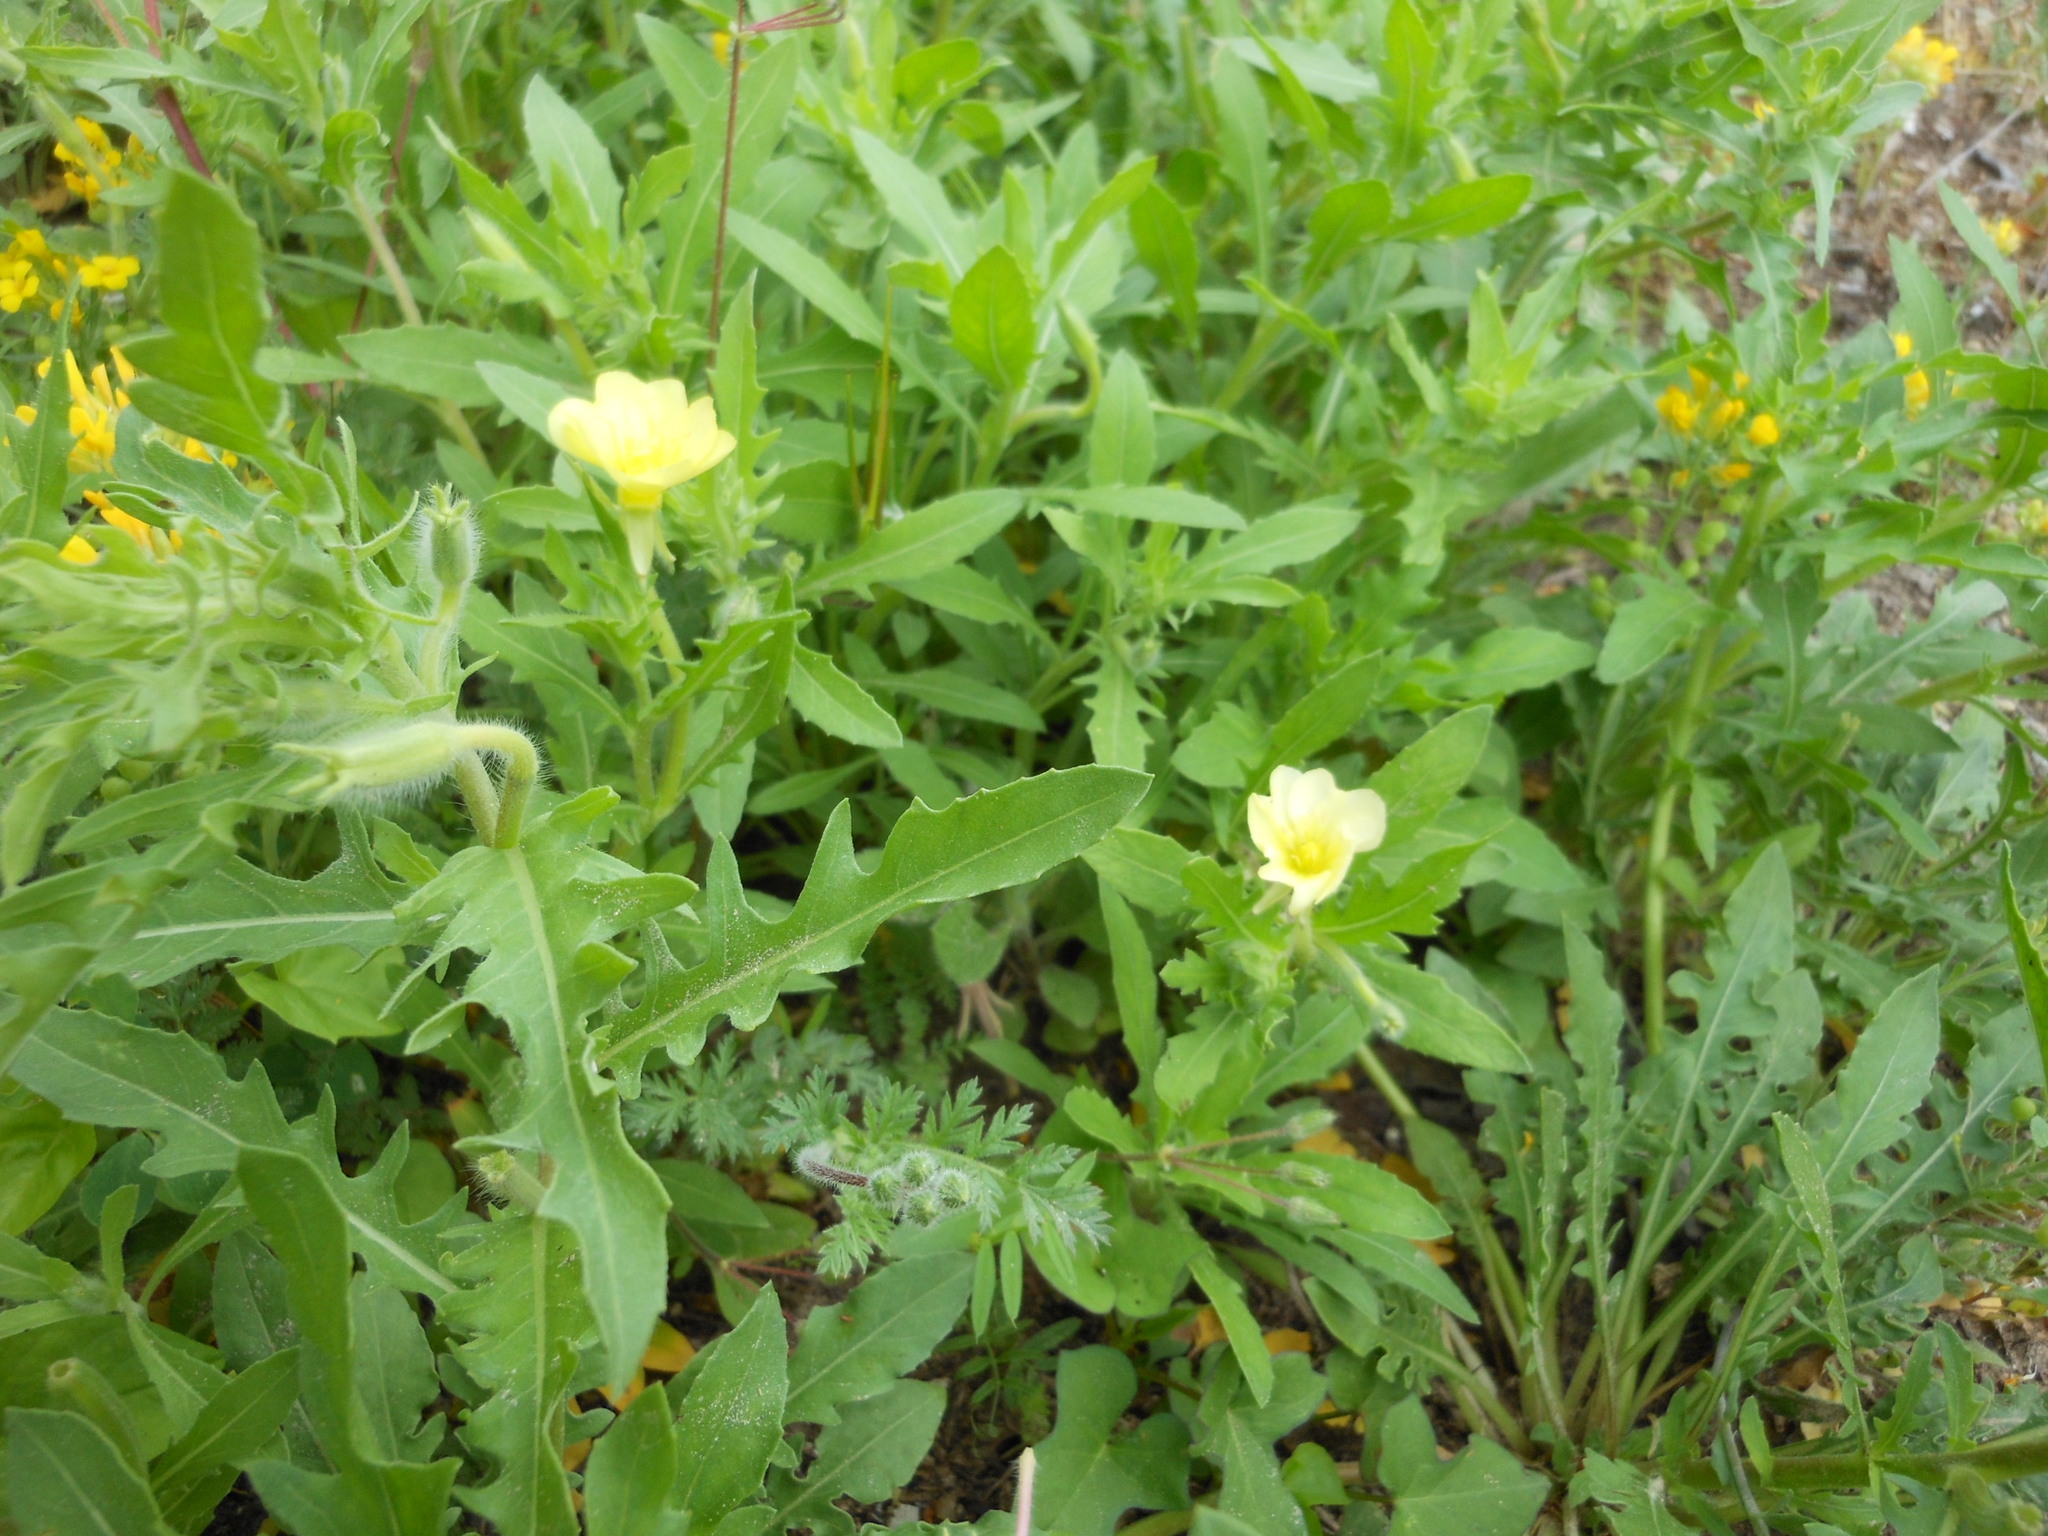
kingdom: Plantae
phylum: Tracheophyta
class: Magnoliopsida
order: Myrtales
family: Onagraceae
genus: Oenothera
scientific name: Oenothera laciniata
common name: Cut-leaved evening-primrose
